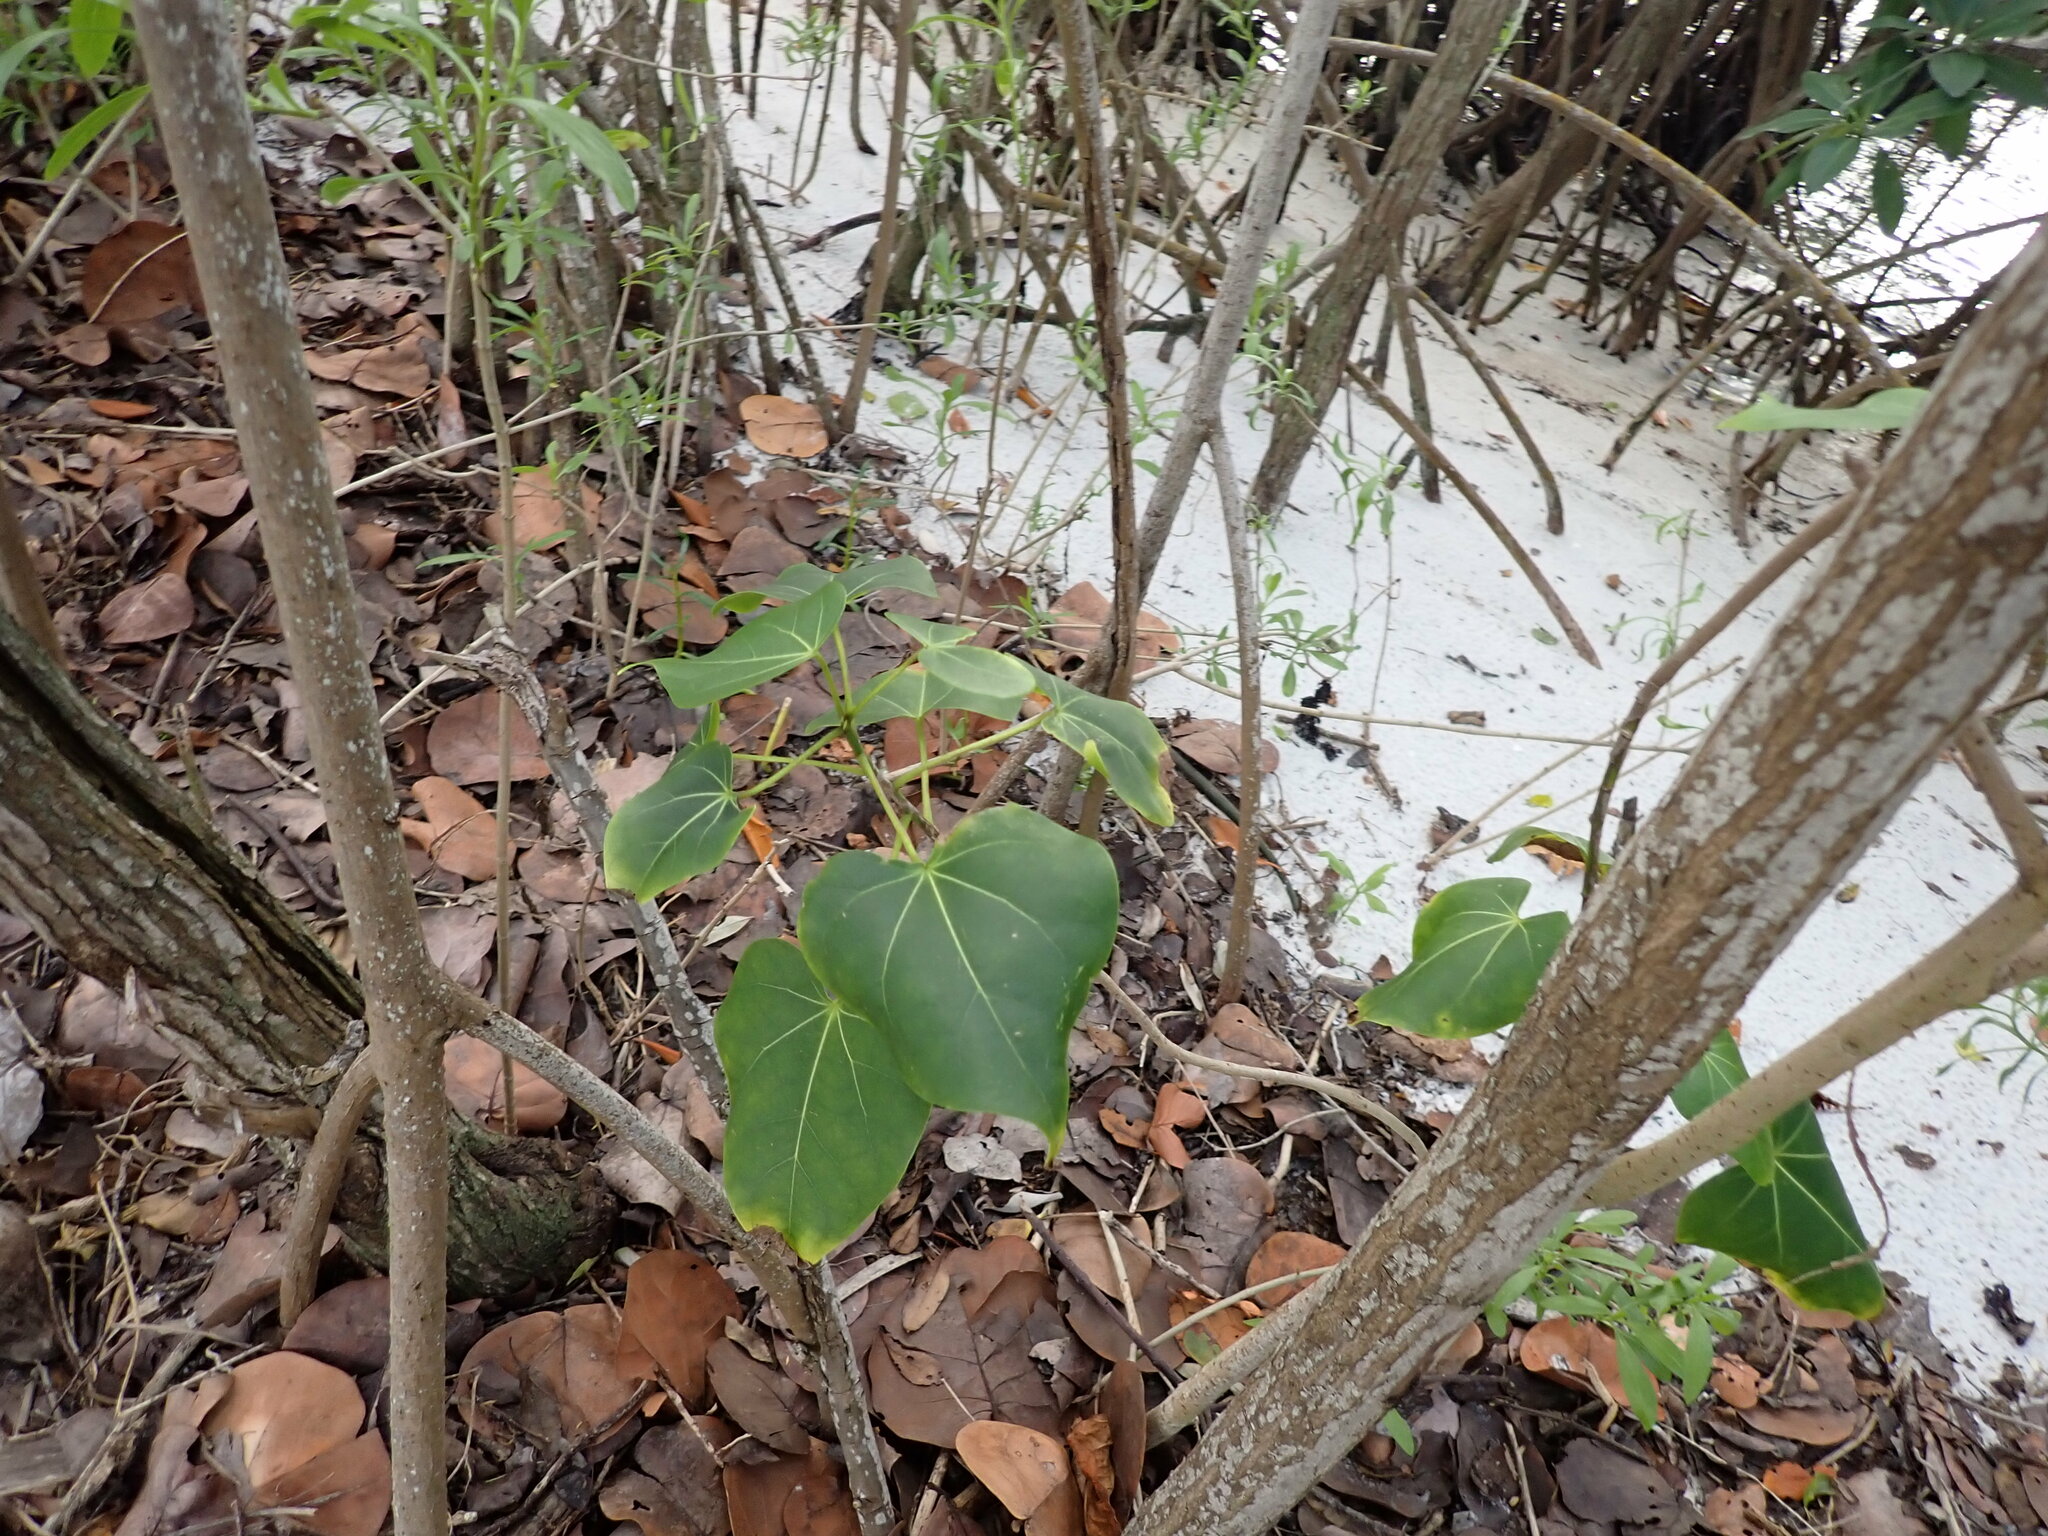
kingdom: Plantae
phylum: Tracheophyta
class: Magnoliopsida
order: Malvales
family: Malvaceae
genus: Thespesia
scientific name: Thespesia populnea
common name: Seaside mahoe
